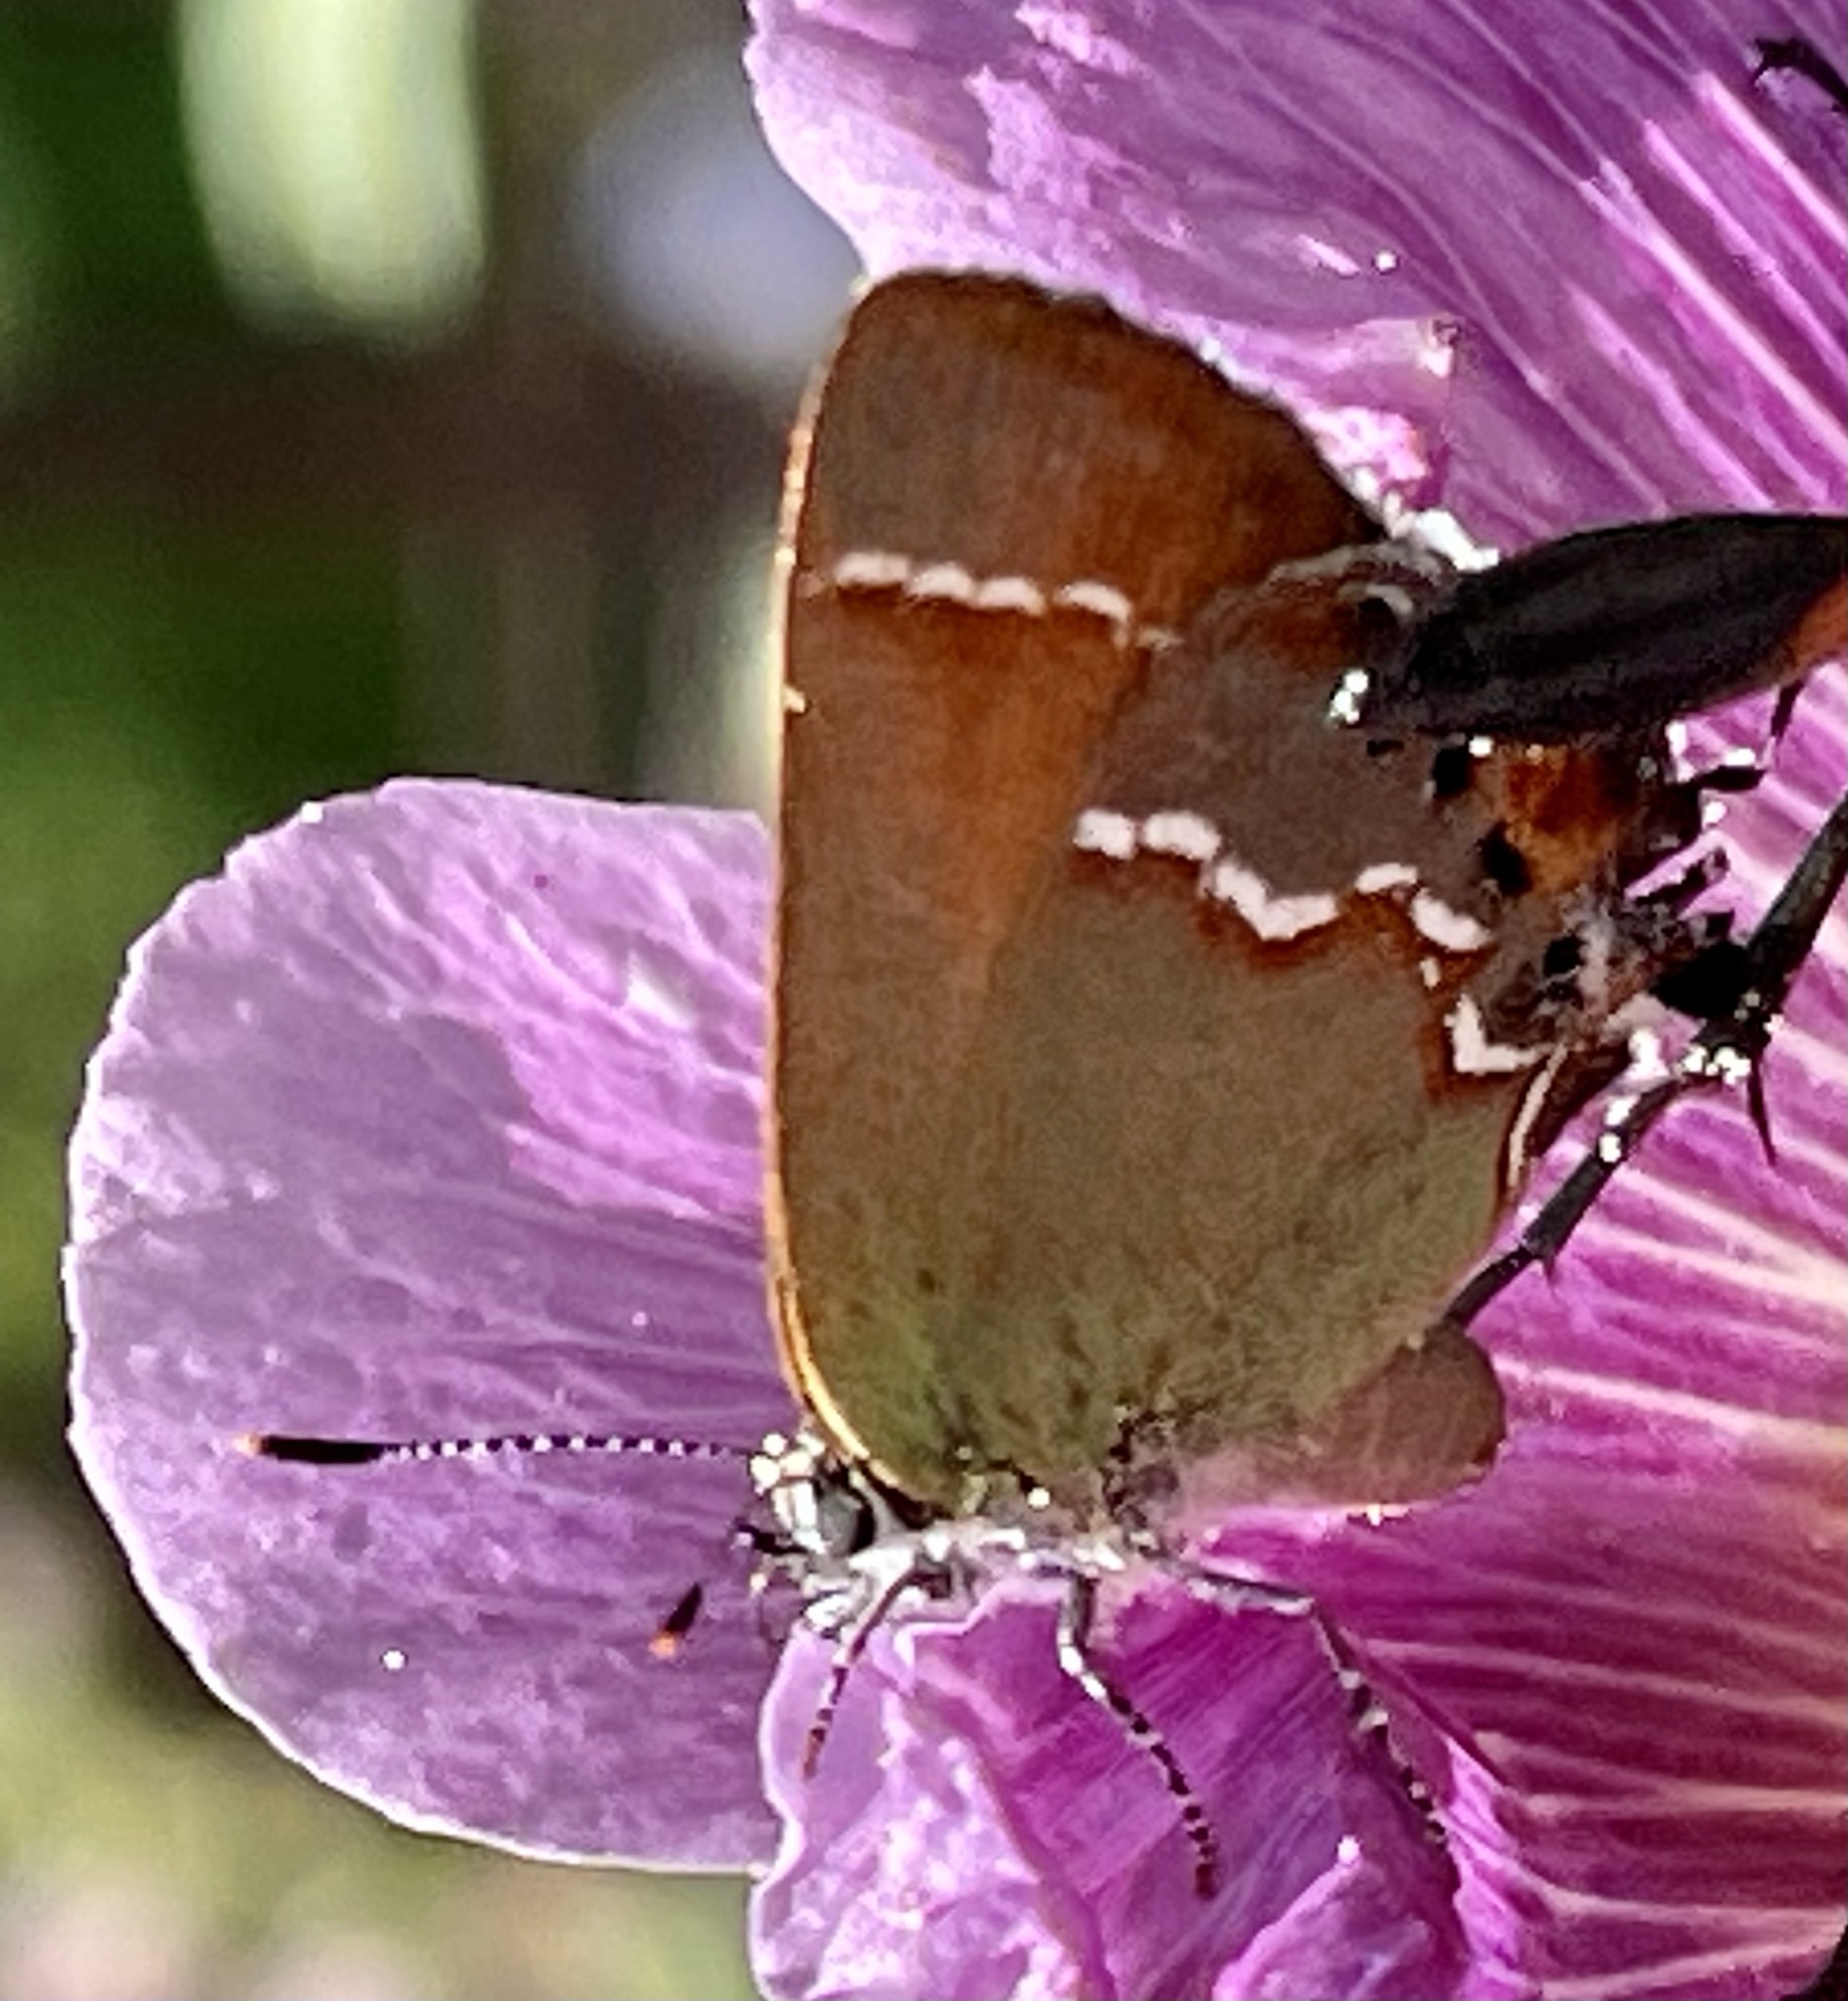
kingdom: Animalia
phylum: Arthropoda
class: Insecta
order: Lepidoptera
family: Lycaenidae
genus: Mitoura
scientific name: Mitoura siva
